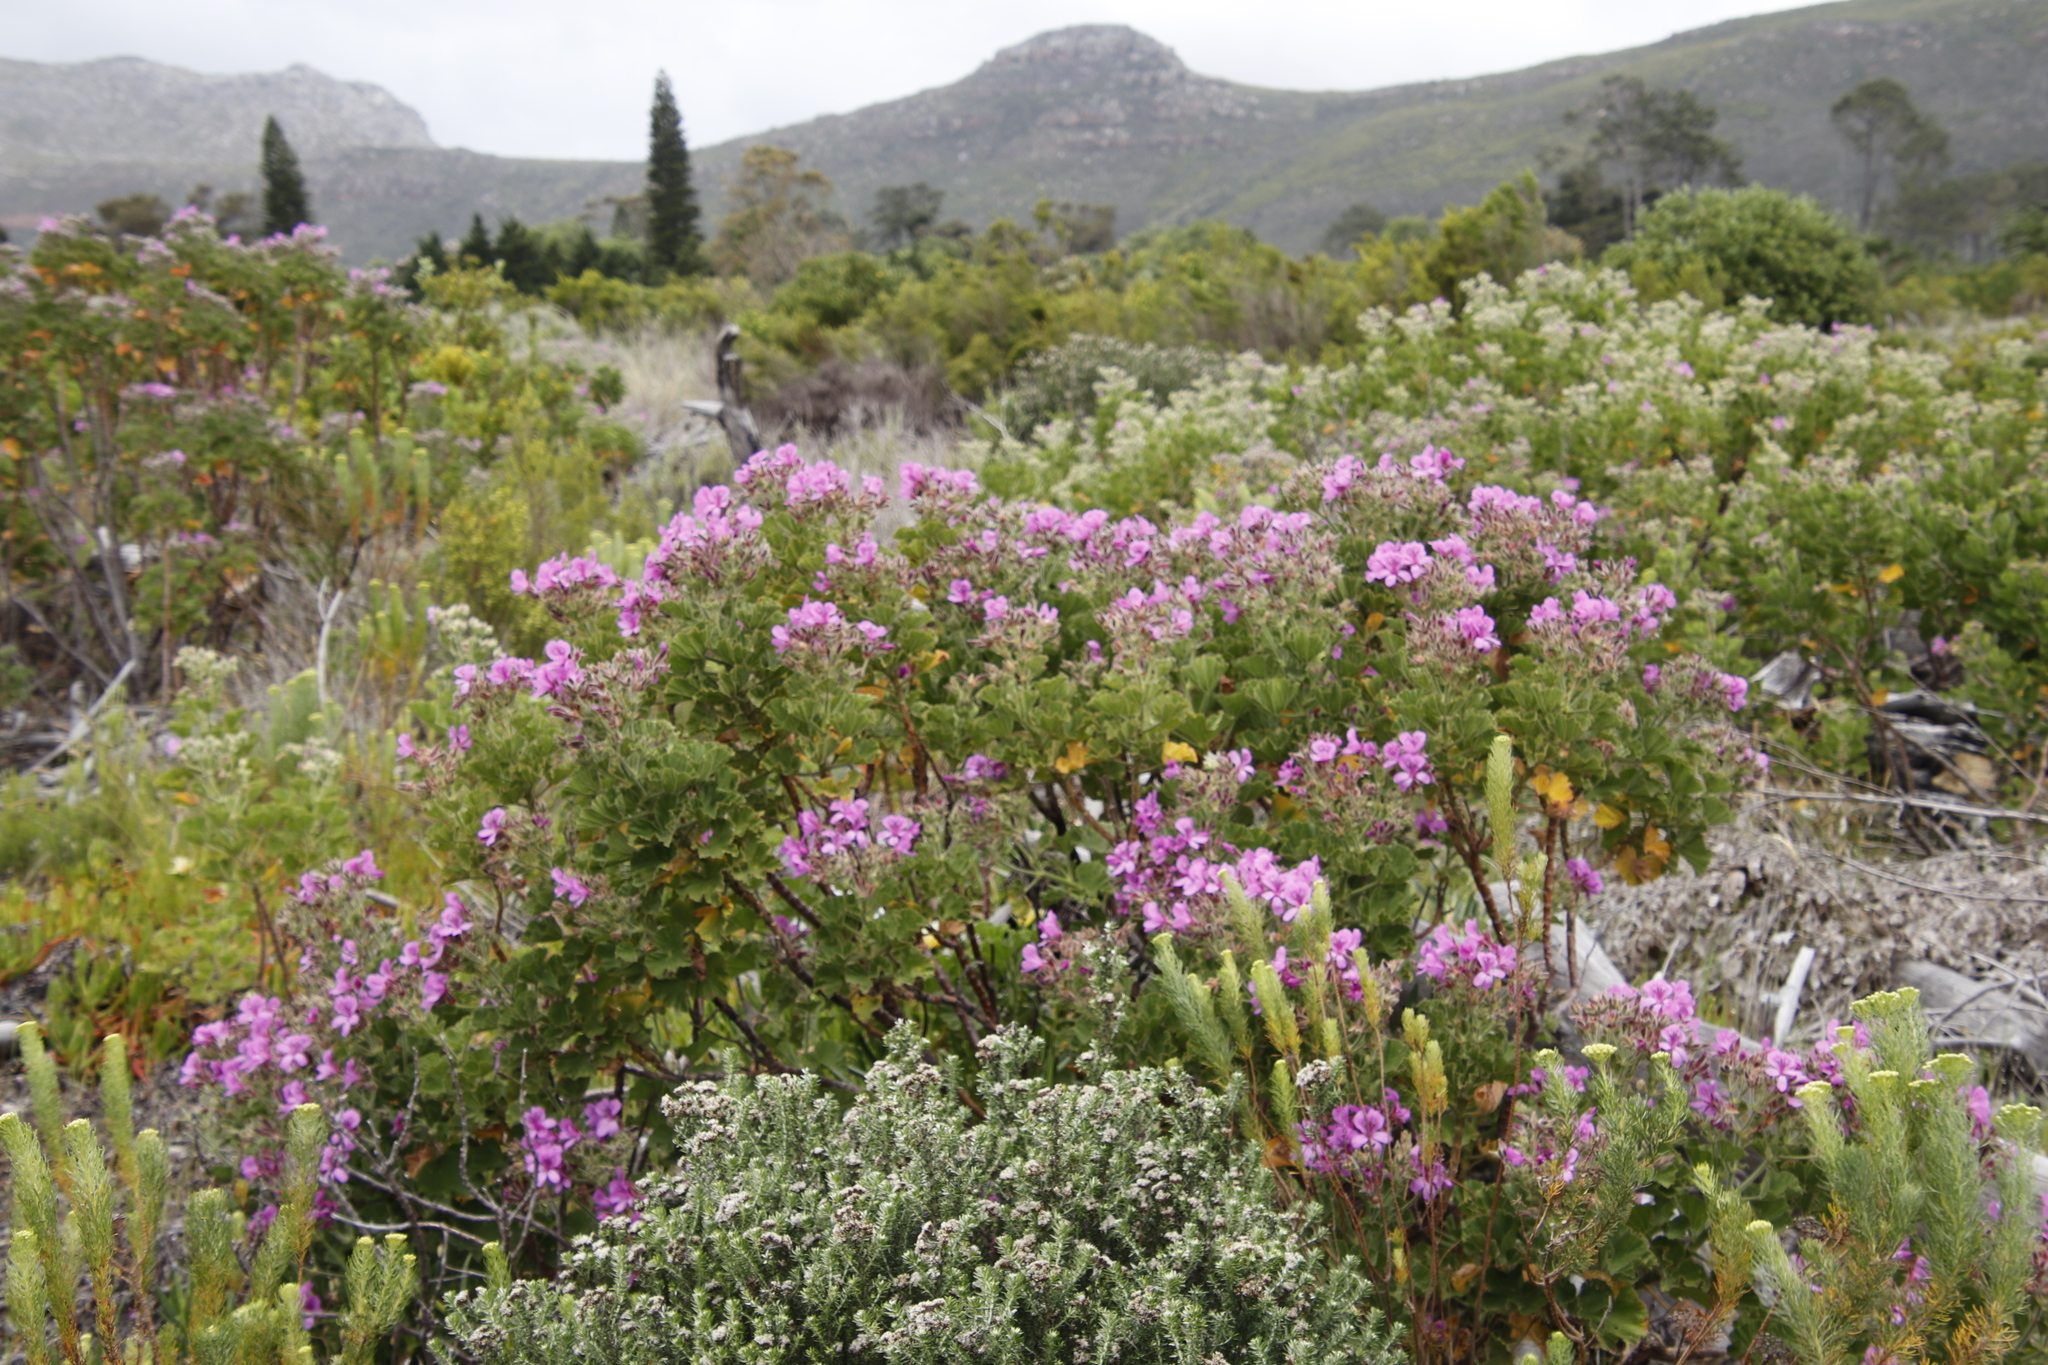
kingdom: Plantae
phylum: Tracheophyta
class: Magnoliopsida
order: Geraniales
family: Geraniaceae
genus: Pelargonium
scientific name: Pelargonium cucullatum
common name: Tree pelargonium
